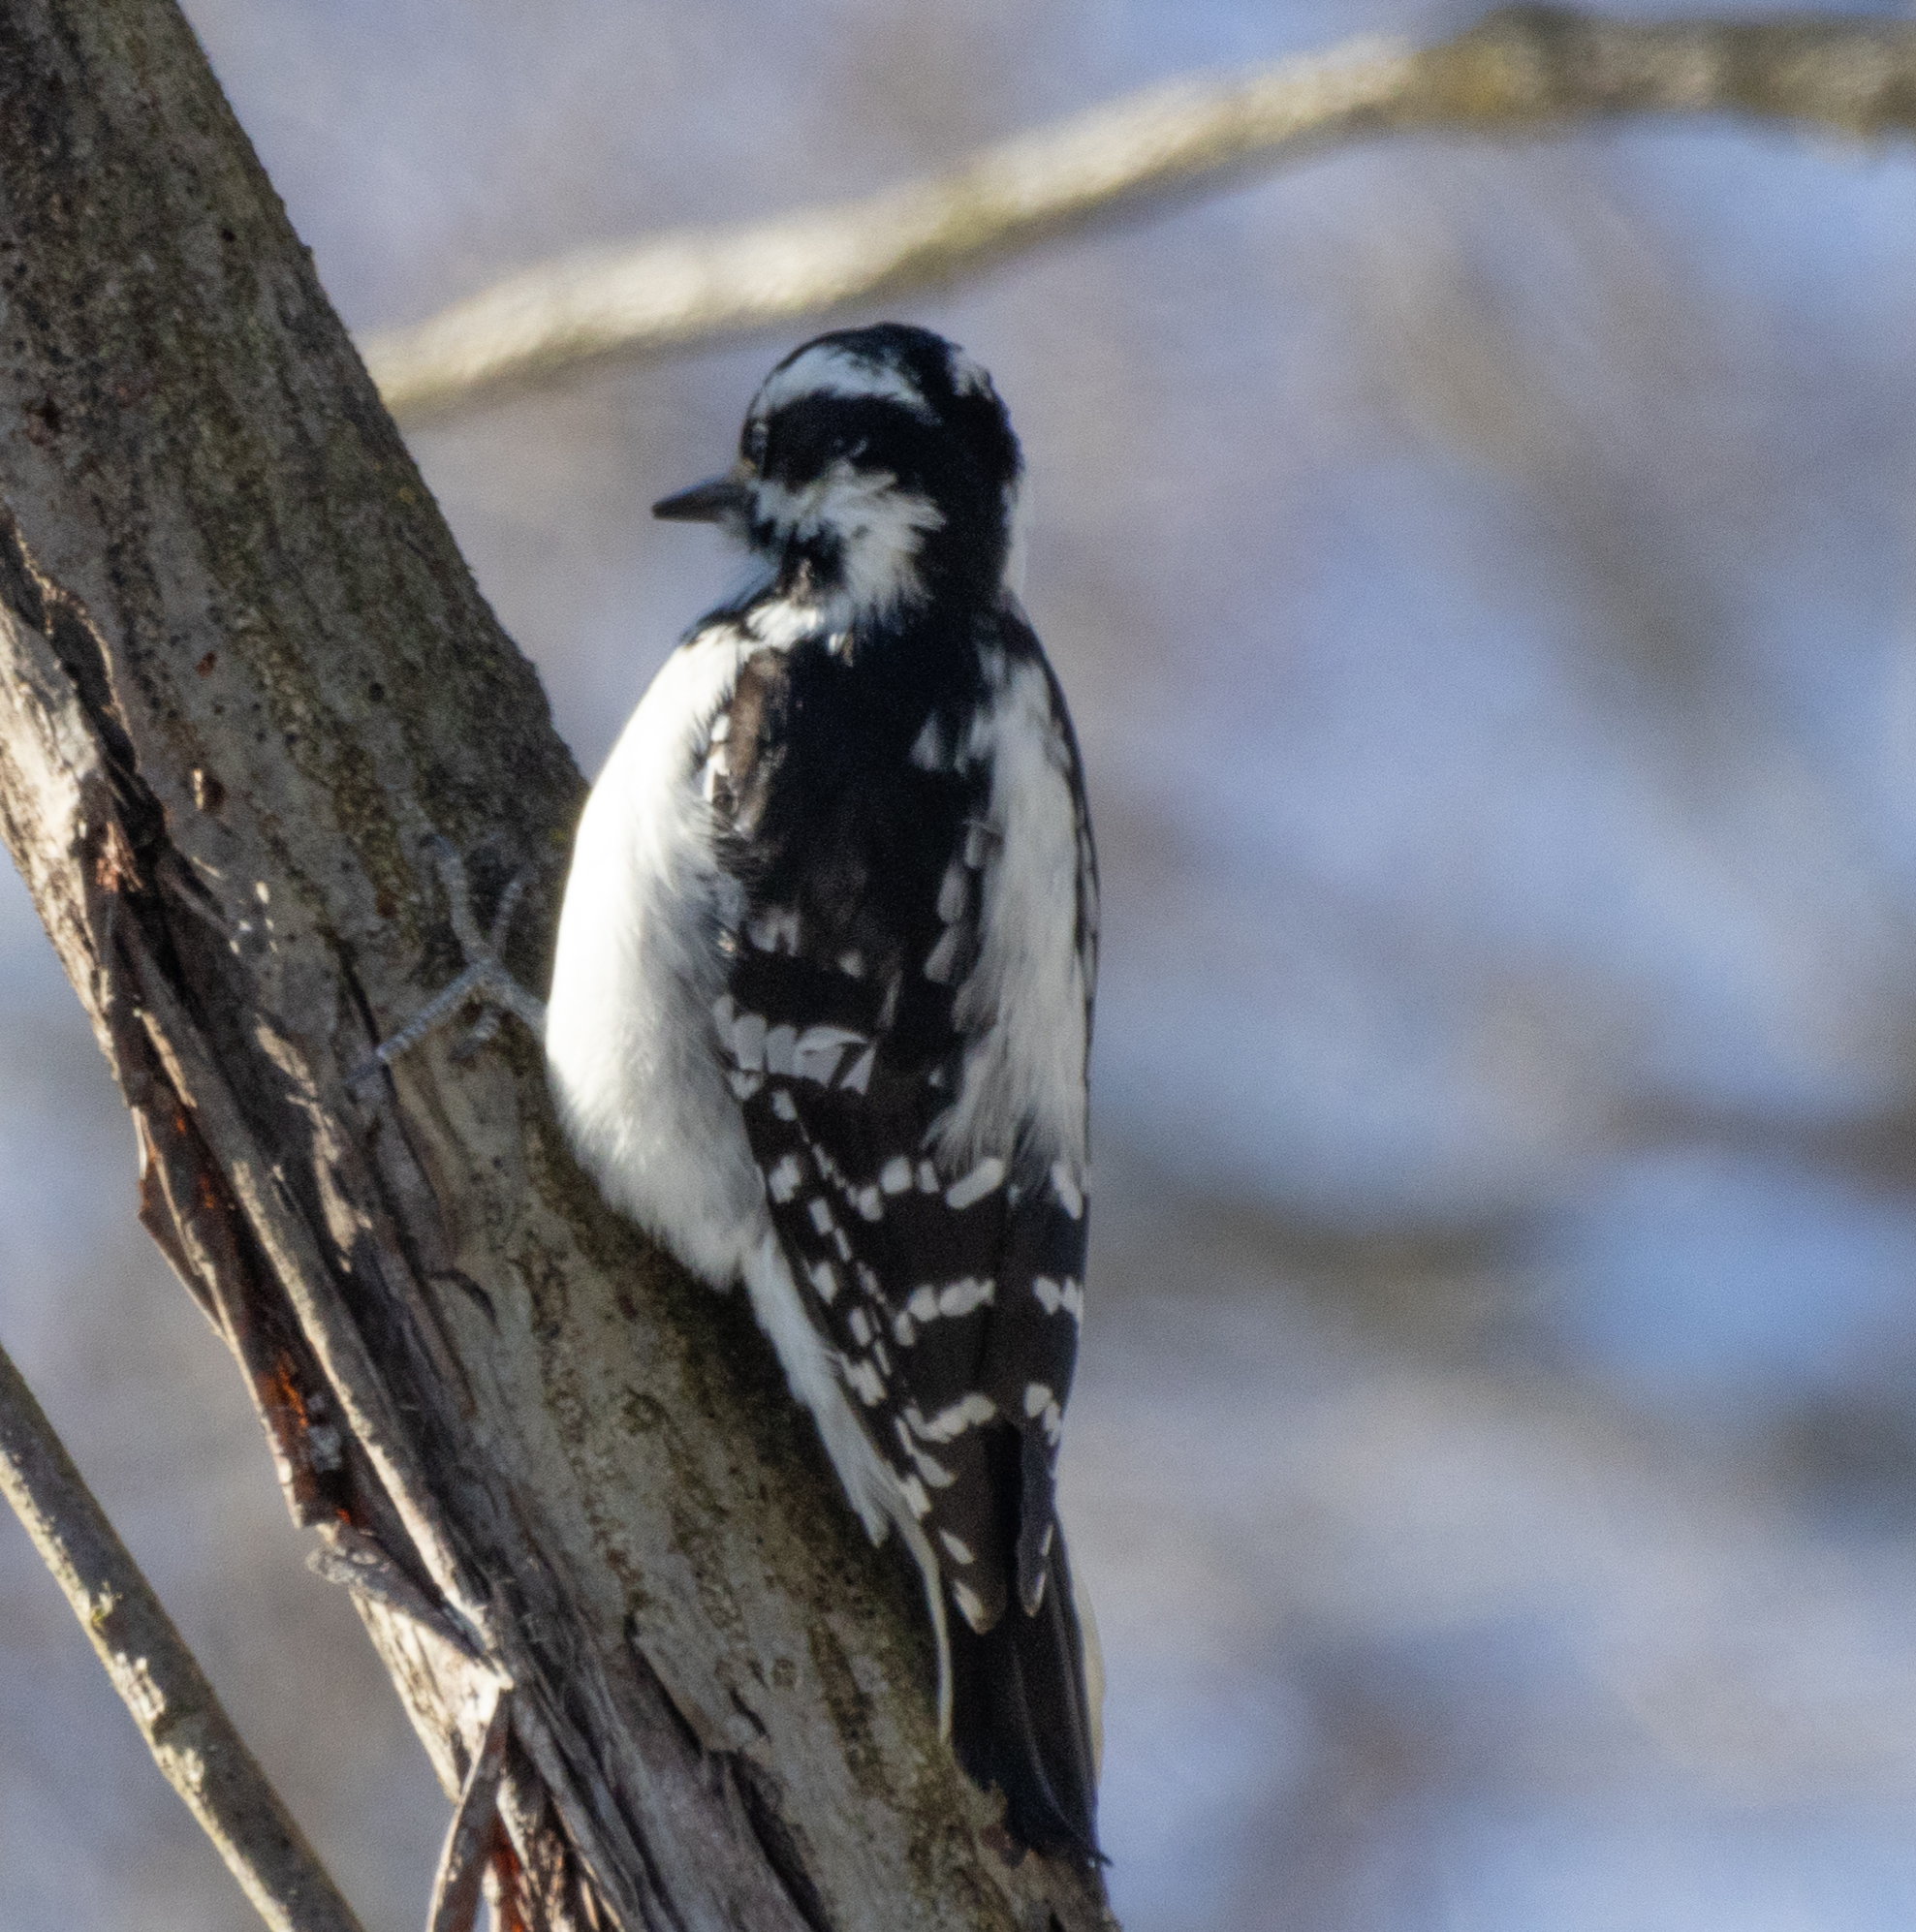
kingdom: Animalia
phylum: Chordata
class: Aves
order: Piciformes
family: Picidae
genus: Dryobates
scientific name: Dryobates pubescens
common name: Downy woodpecker
